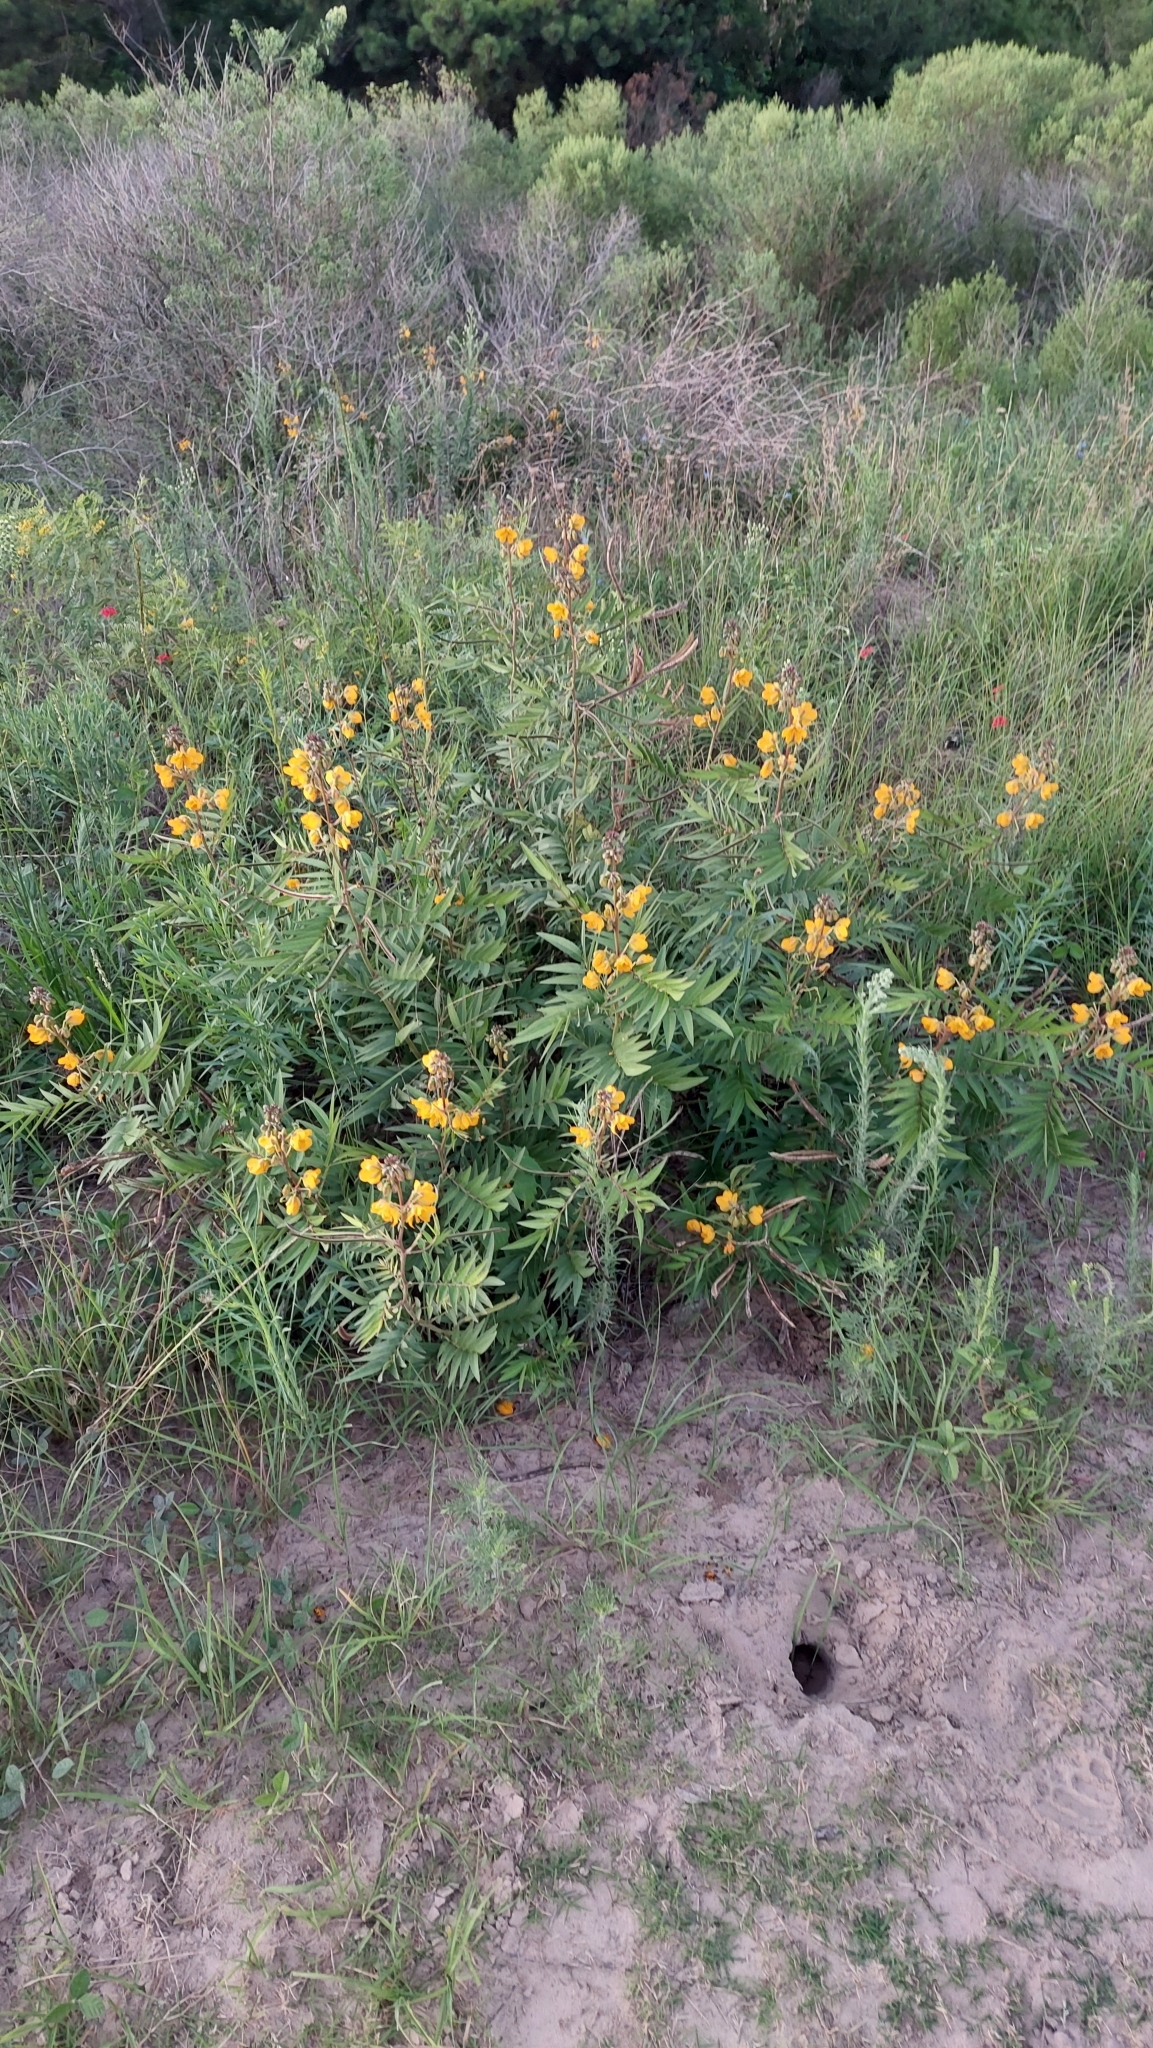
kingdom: Plantae
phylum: Tracheophyta
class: Magnoliopsida
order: Fabales
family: Fabaceae
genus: Senna
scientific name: Senna scabriuscula
